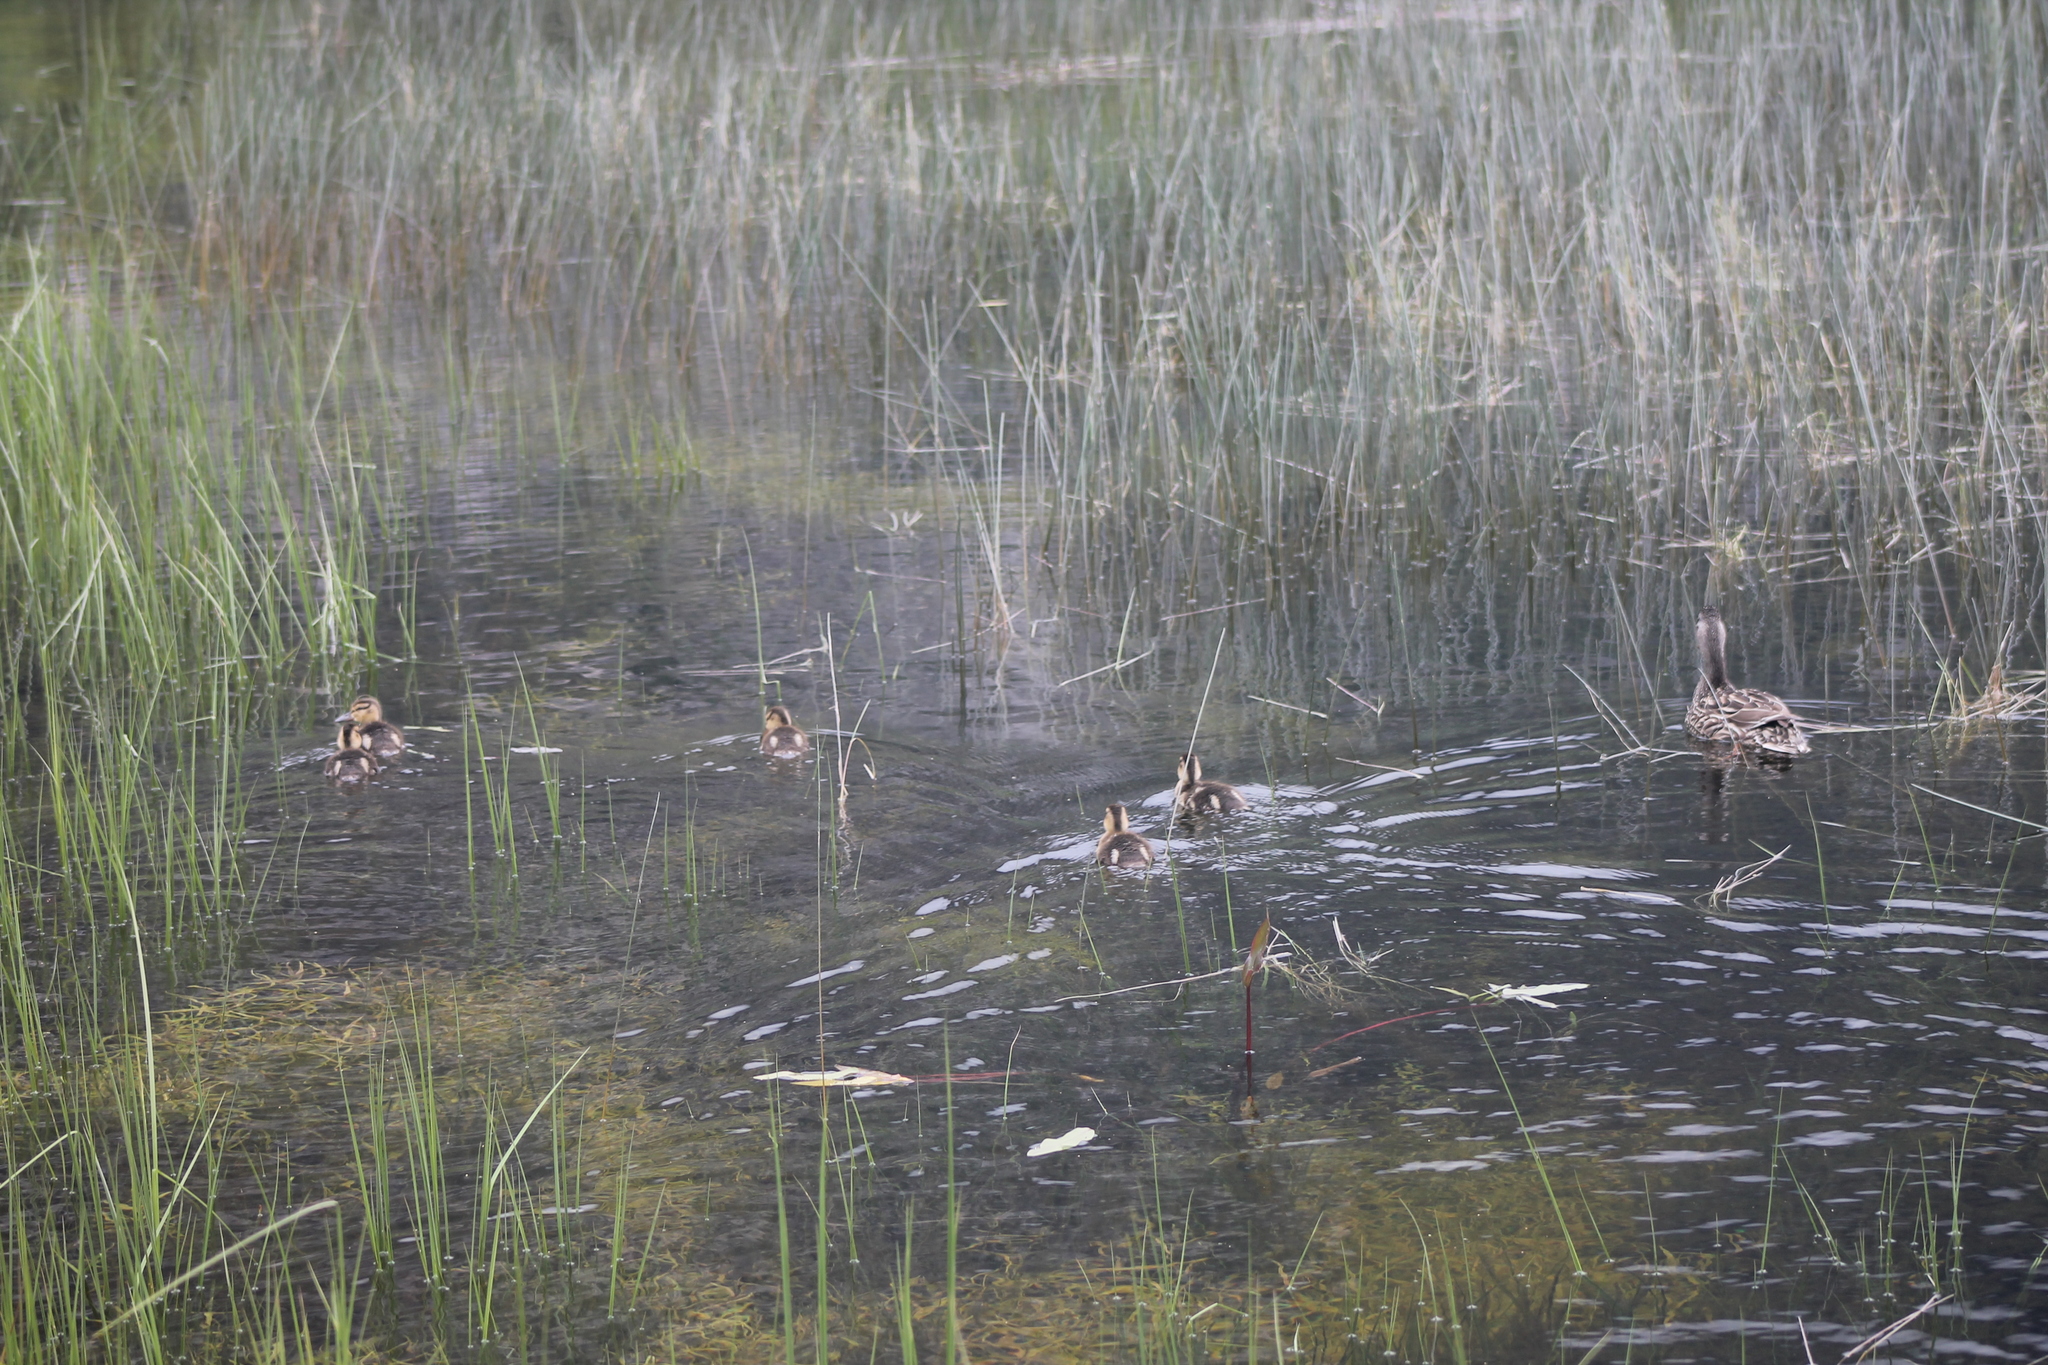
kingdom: Animalia
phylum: Chordata
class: Aves
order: Anseriformes
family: Anatidae
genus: Anas
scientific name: Anas platyrhynchos
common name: Mallard
